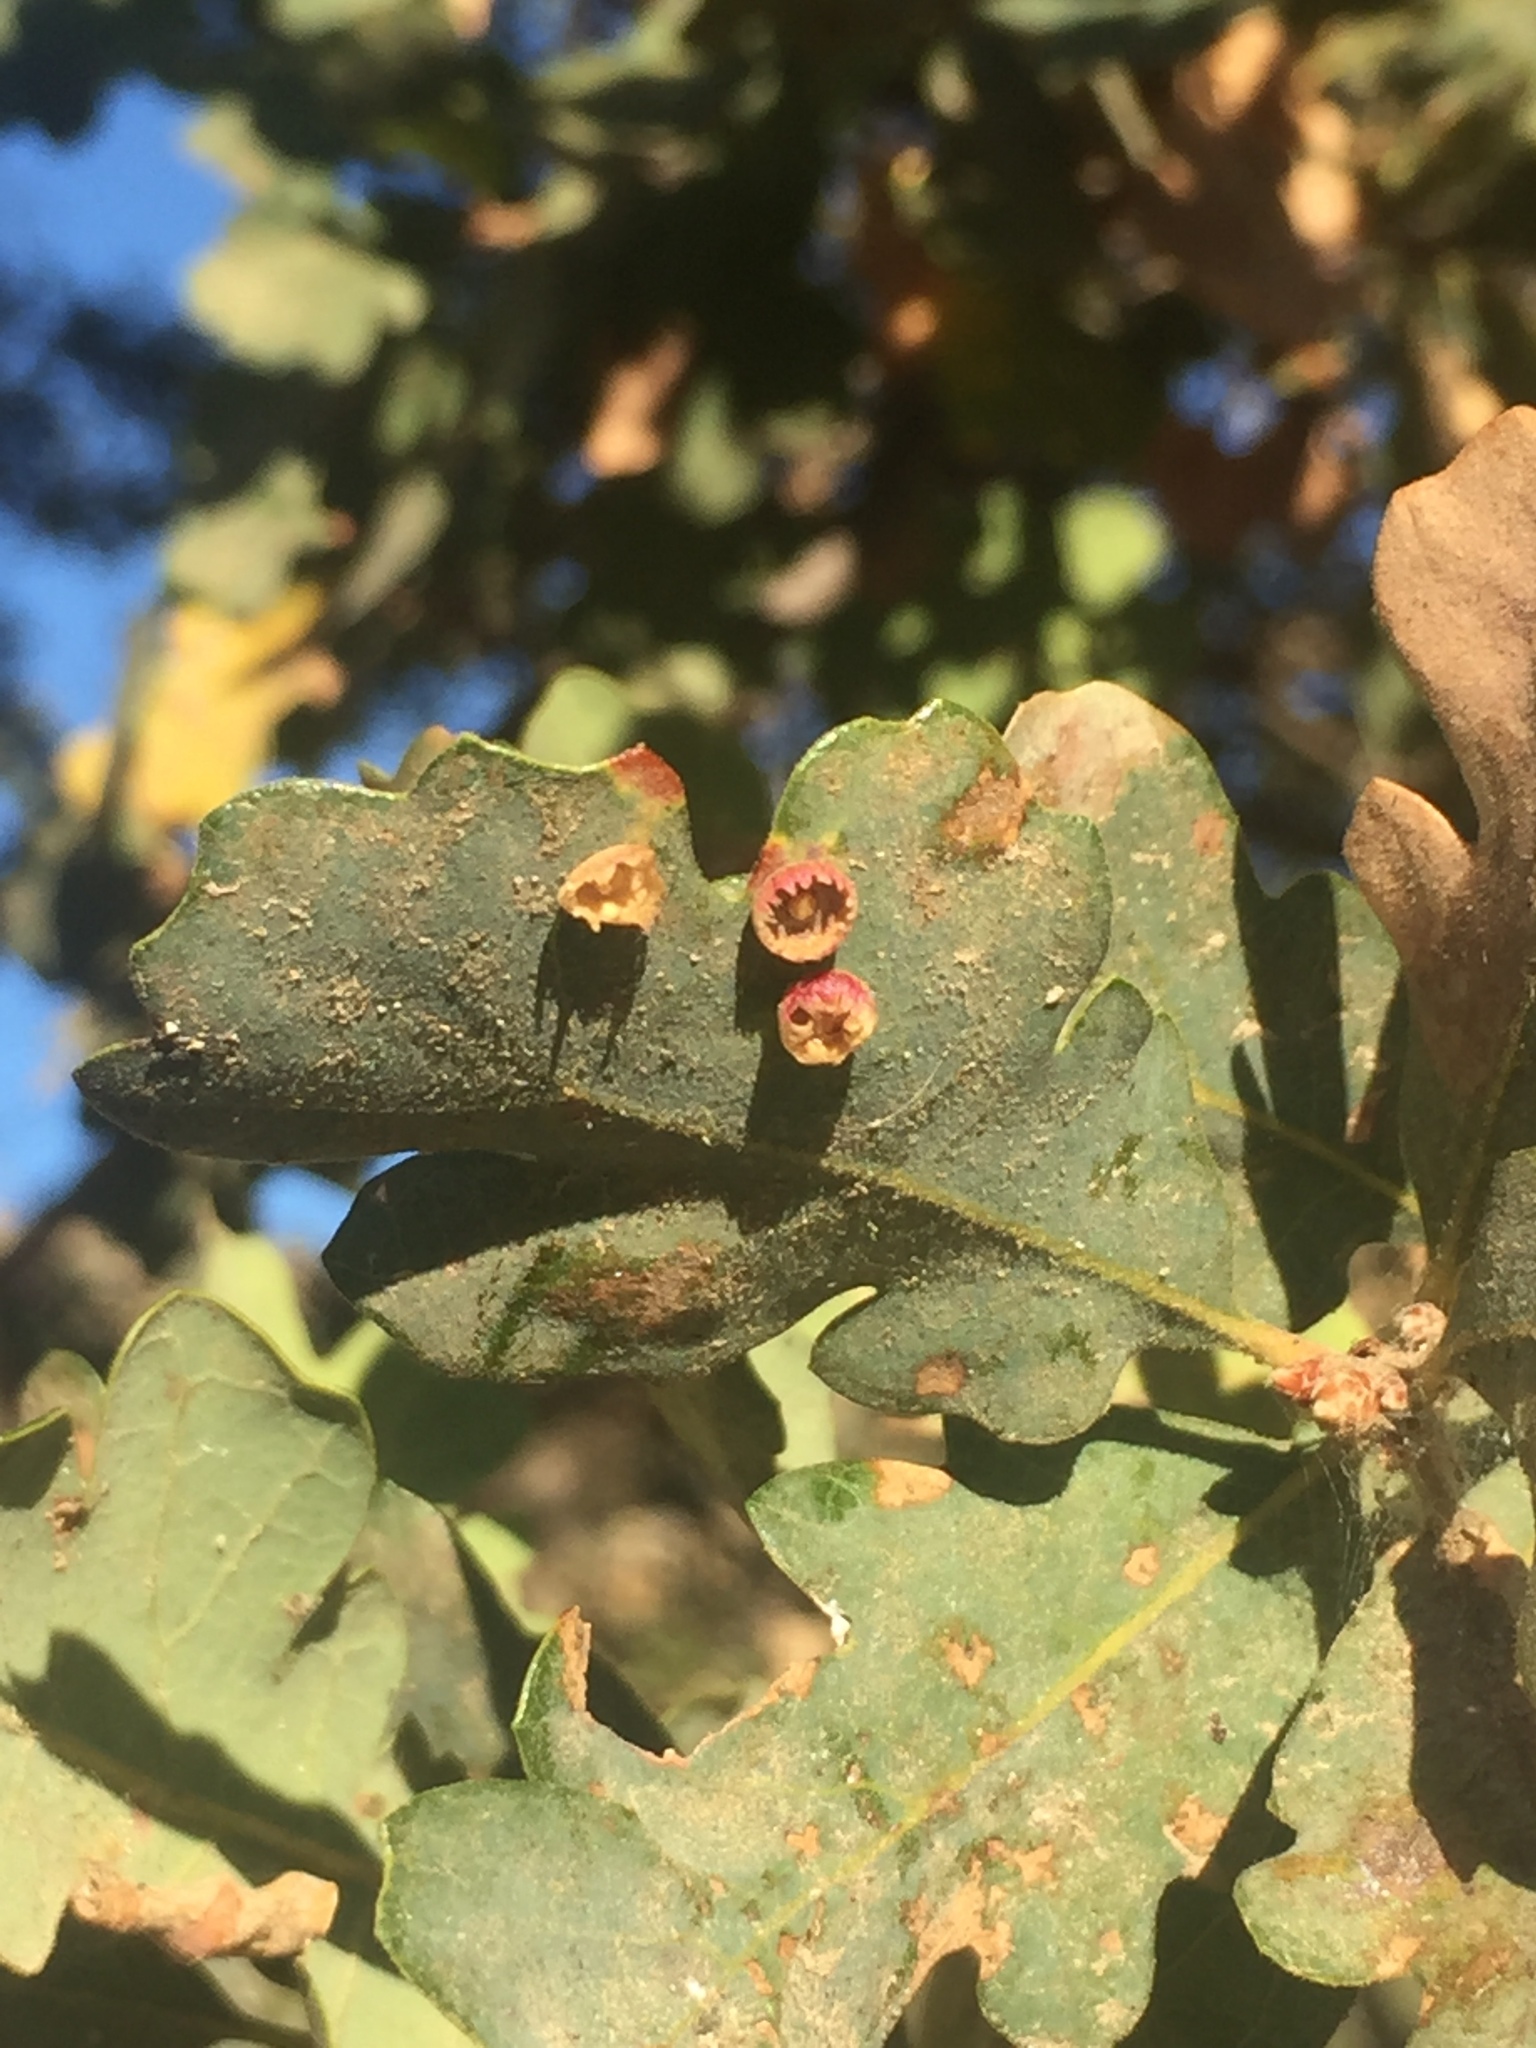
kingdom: Animalia
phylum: Arthropoda
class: Insecta
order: Hymenoptera
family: Cynipidae
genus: Andricus
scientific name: Andricus
